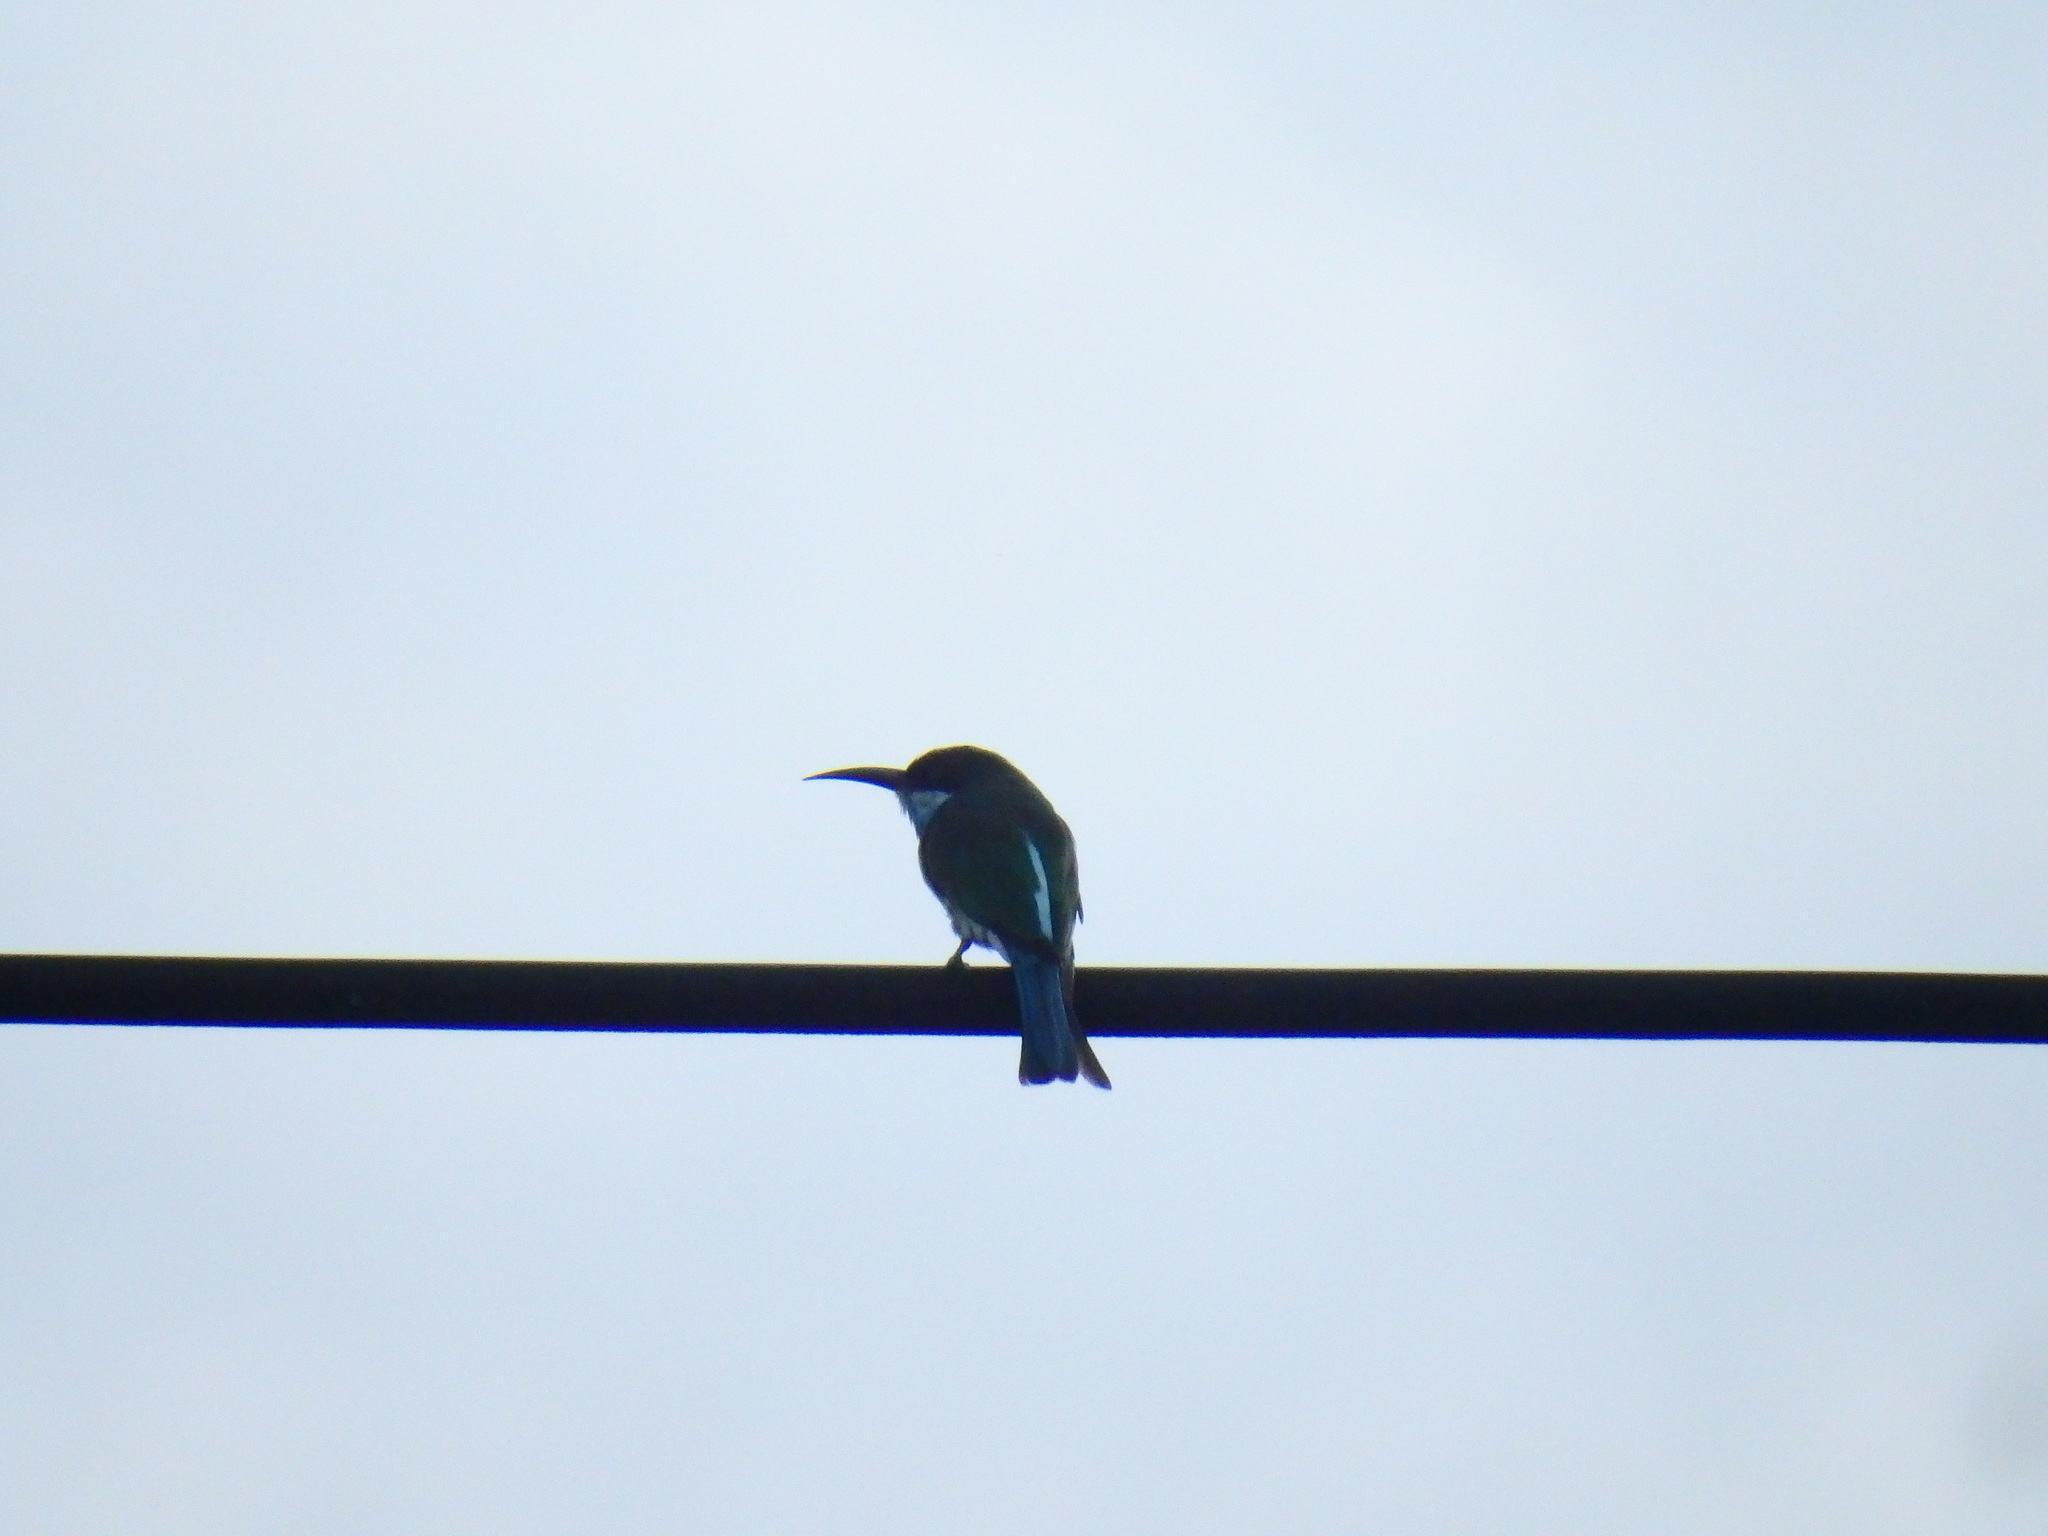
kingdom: Animalia
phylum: Chordata
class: Aves
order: Coraciiformes
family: Meropidae
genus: Merops
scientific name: Merops viridis
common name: Blue-throated bee-eater
